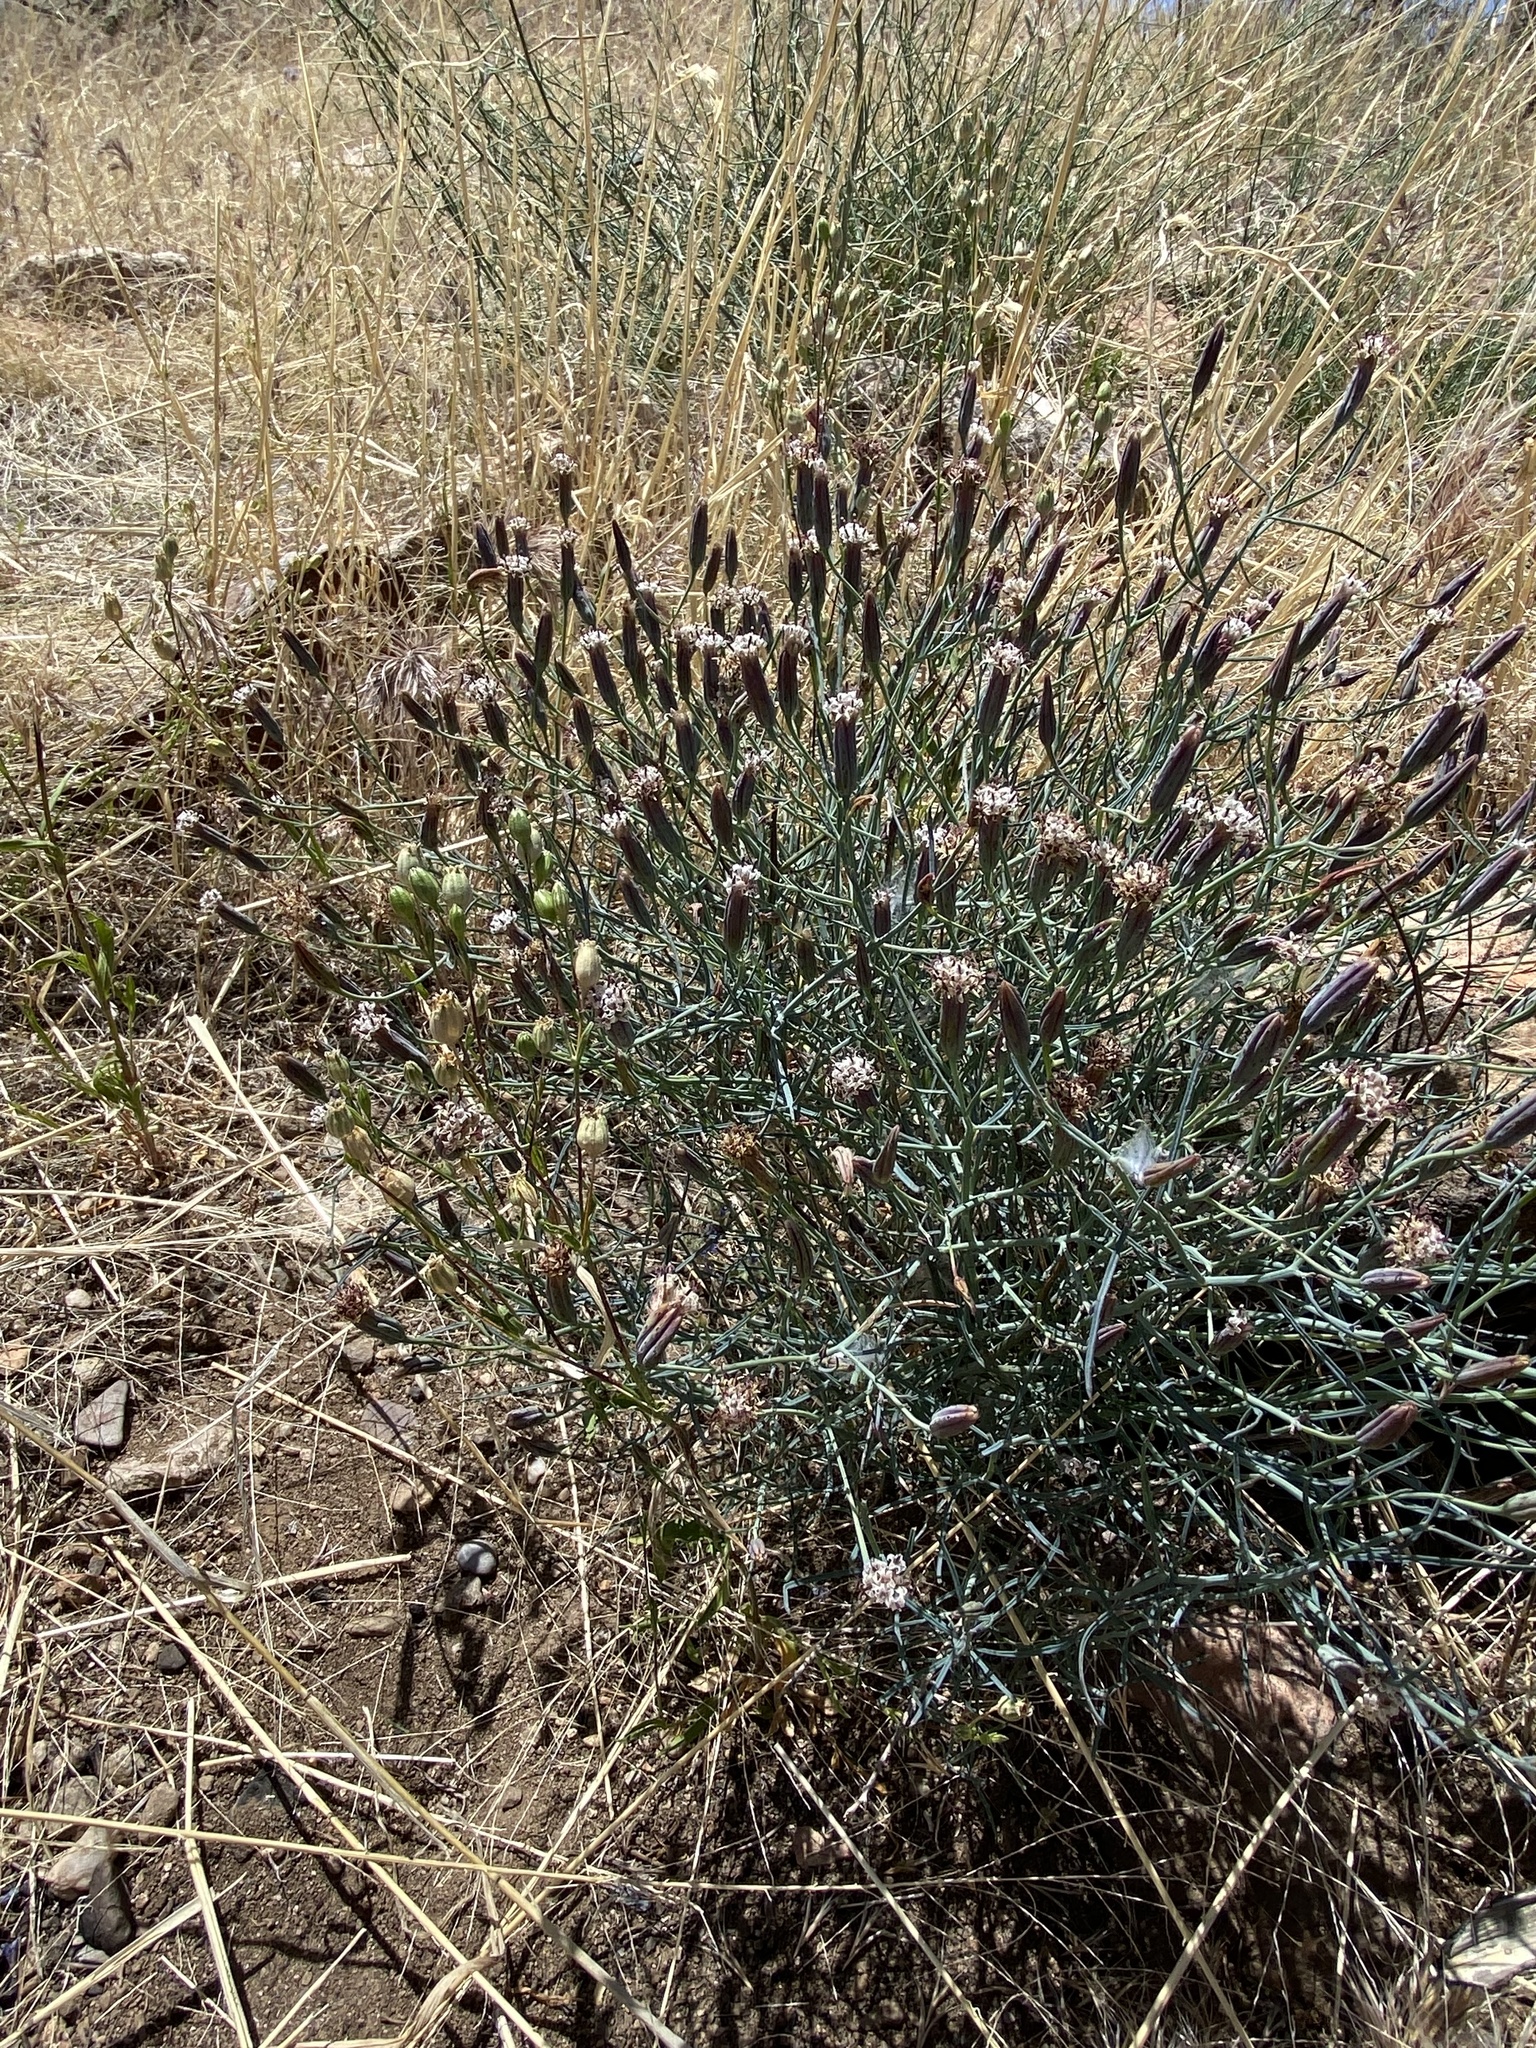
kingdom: Plantae
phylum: Tracheophyta
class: Magnoliopsida
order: Asterales
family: Asteraceae
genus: Porophyllum
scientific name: Porophyllum gracile
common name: Odora
